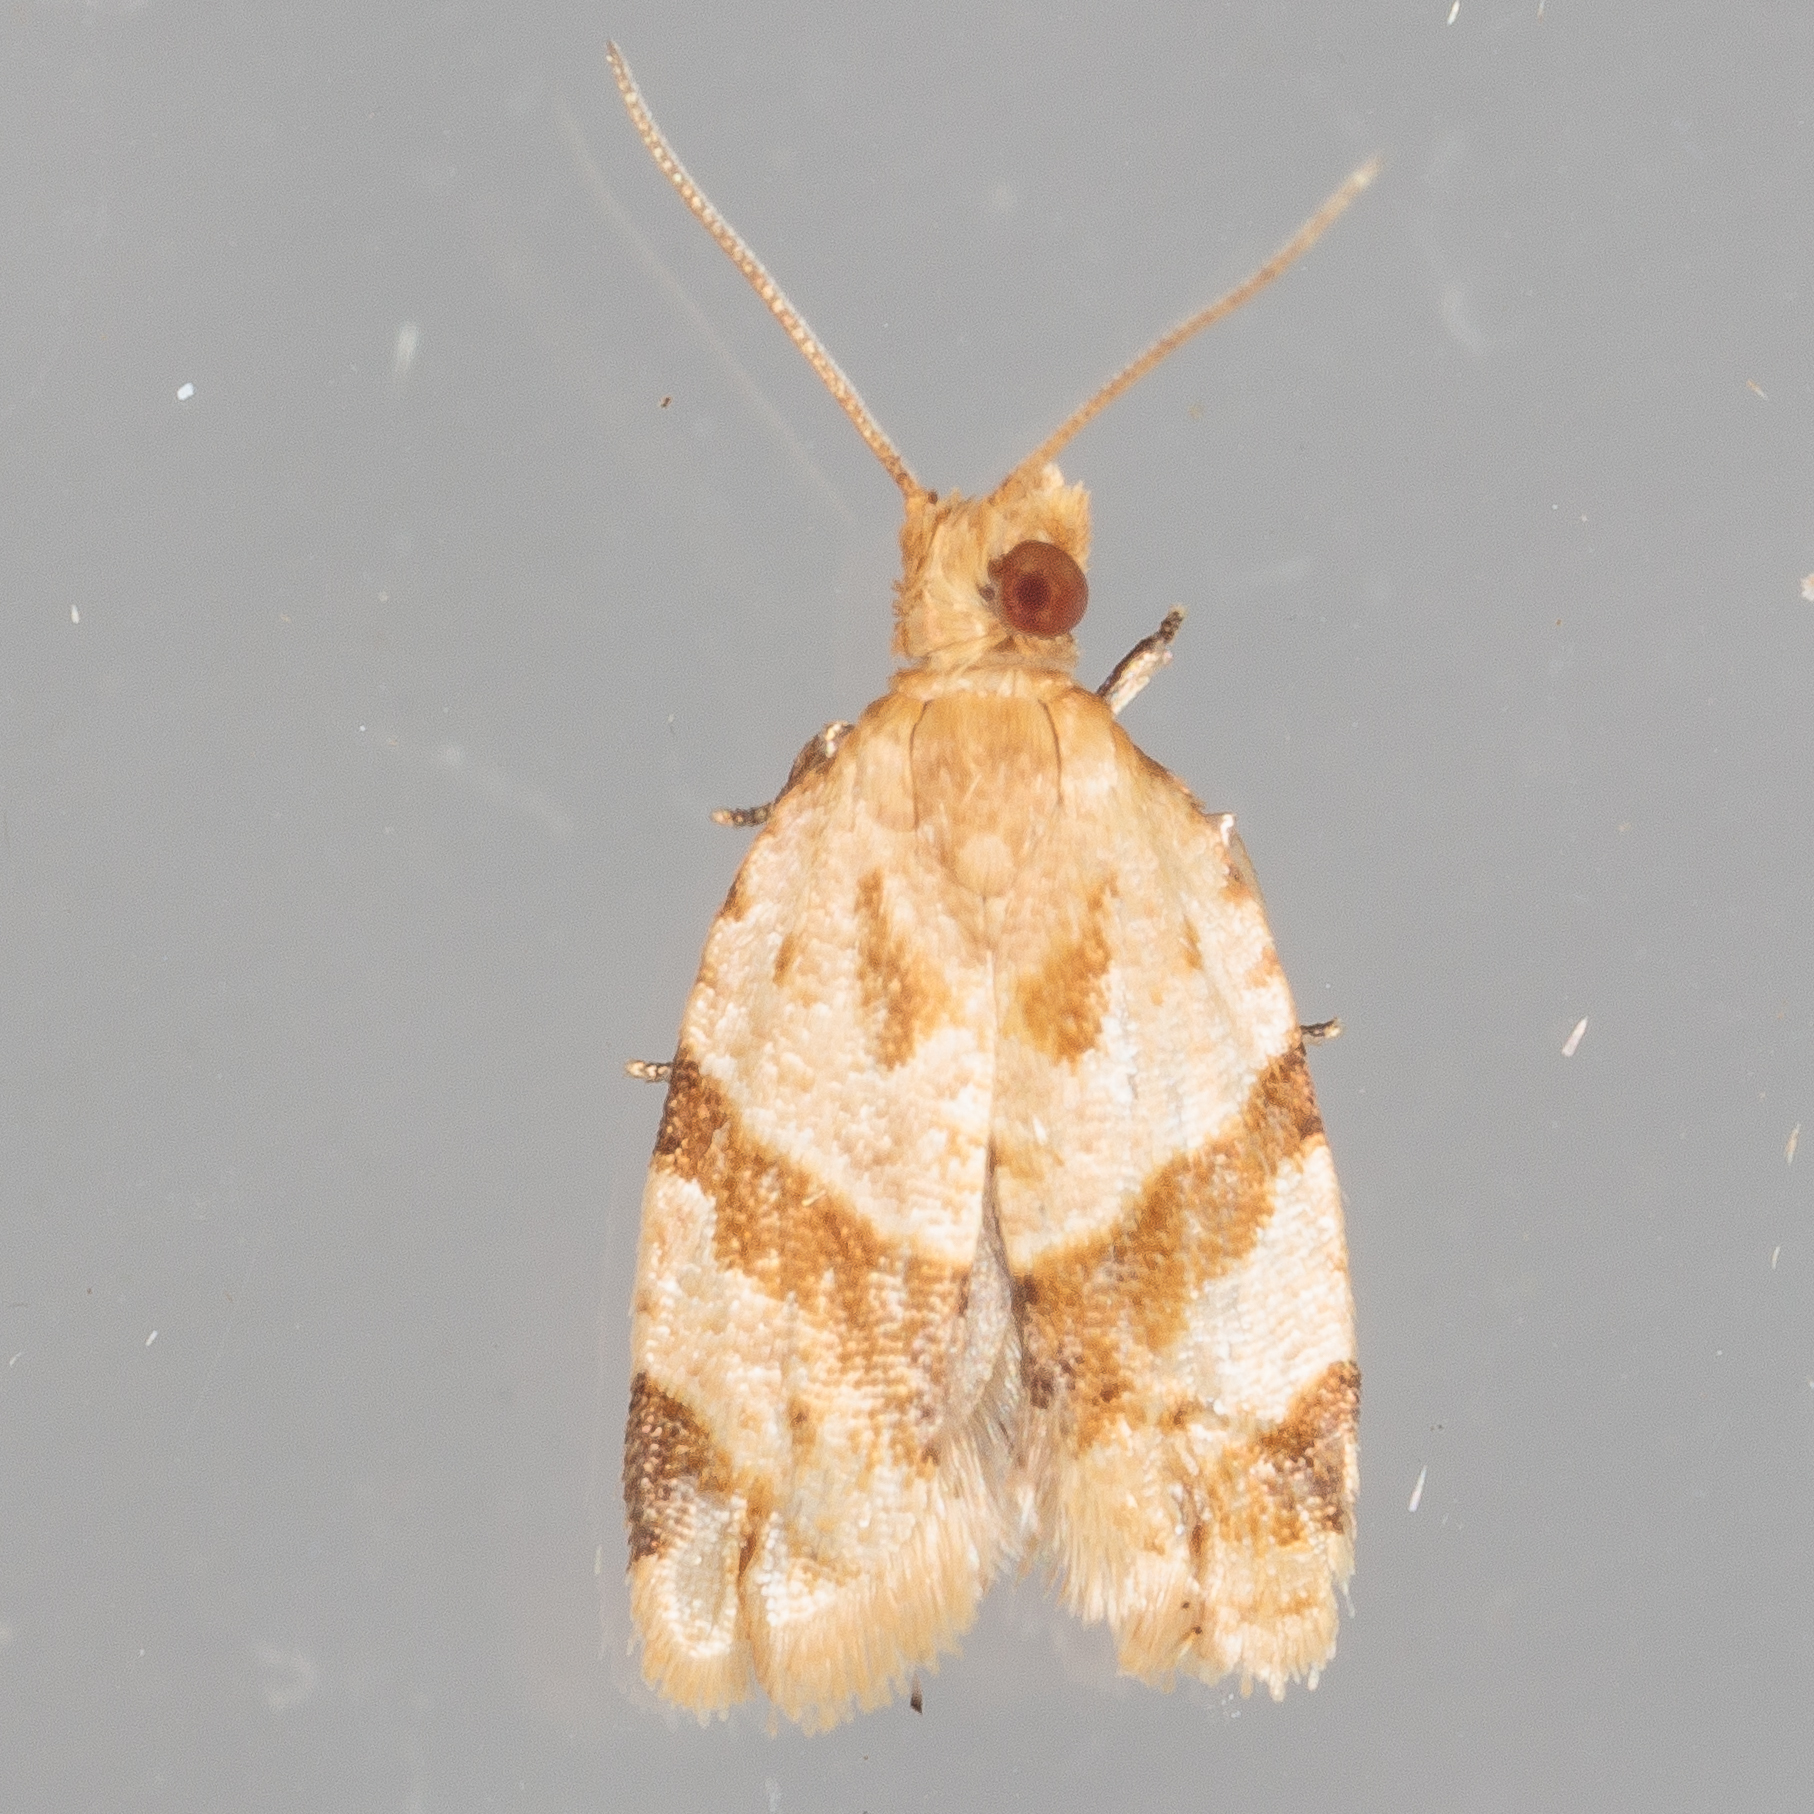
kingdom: Animalia
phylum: Arthropoda
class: Insecta
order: Lepidoptera
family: Tortricidae
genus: Clepsis
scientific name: Clepsis peritana
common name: Garden tortrix
